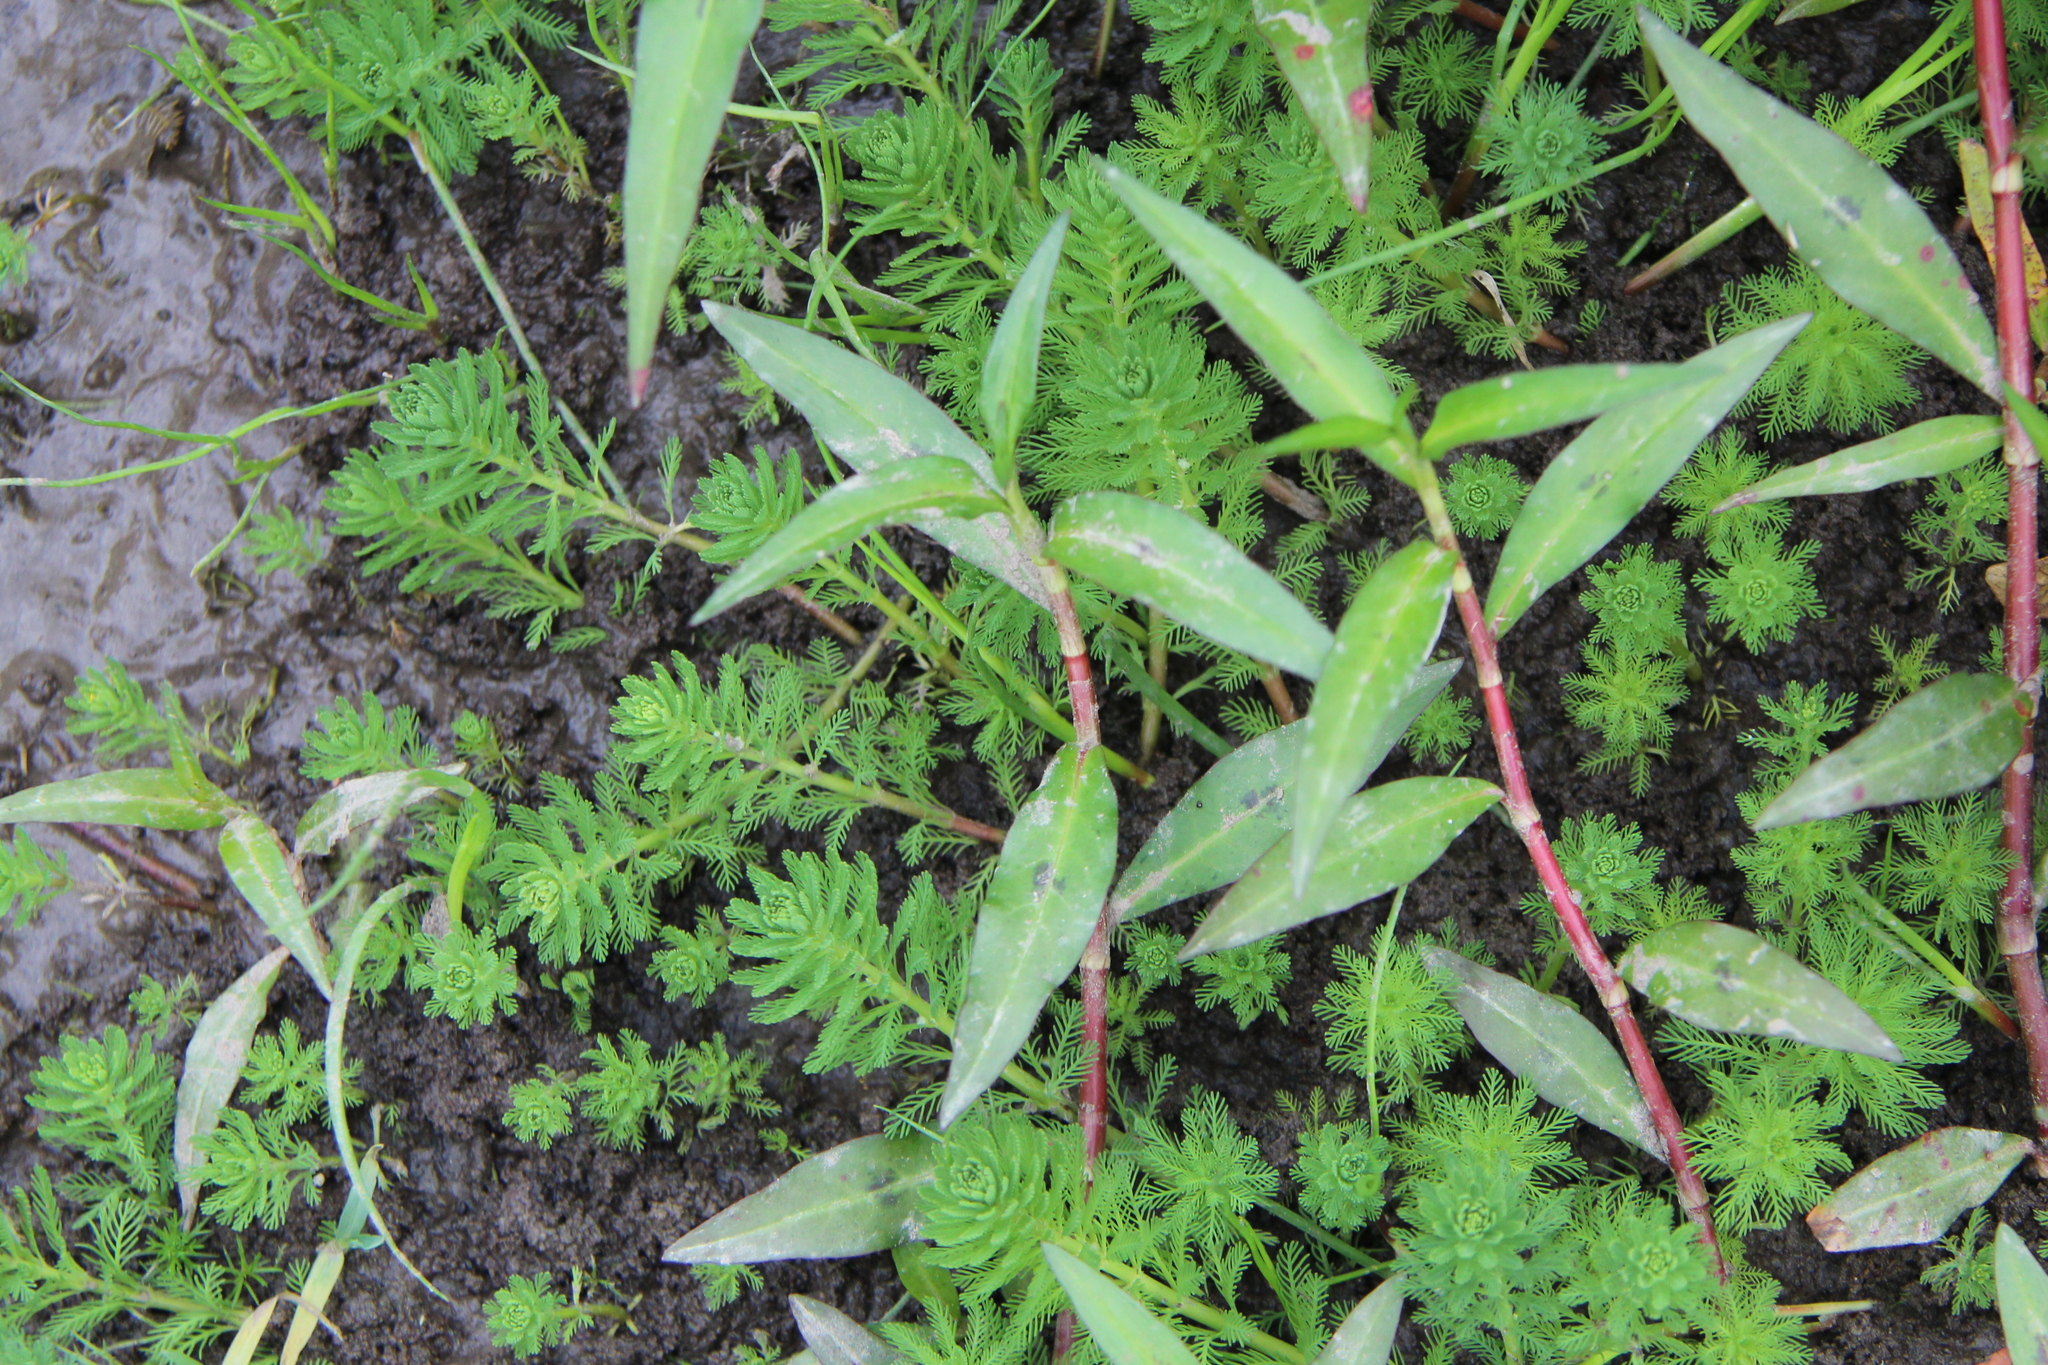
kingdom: Plantae
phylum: Tracheophyta
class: Magnoliopsida
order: Saxifragales
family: Haloragaceae
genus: Myriophyllum
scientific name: Myriophyllum aquaticum
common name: Parrot's feather
